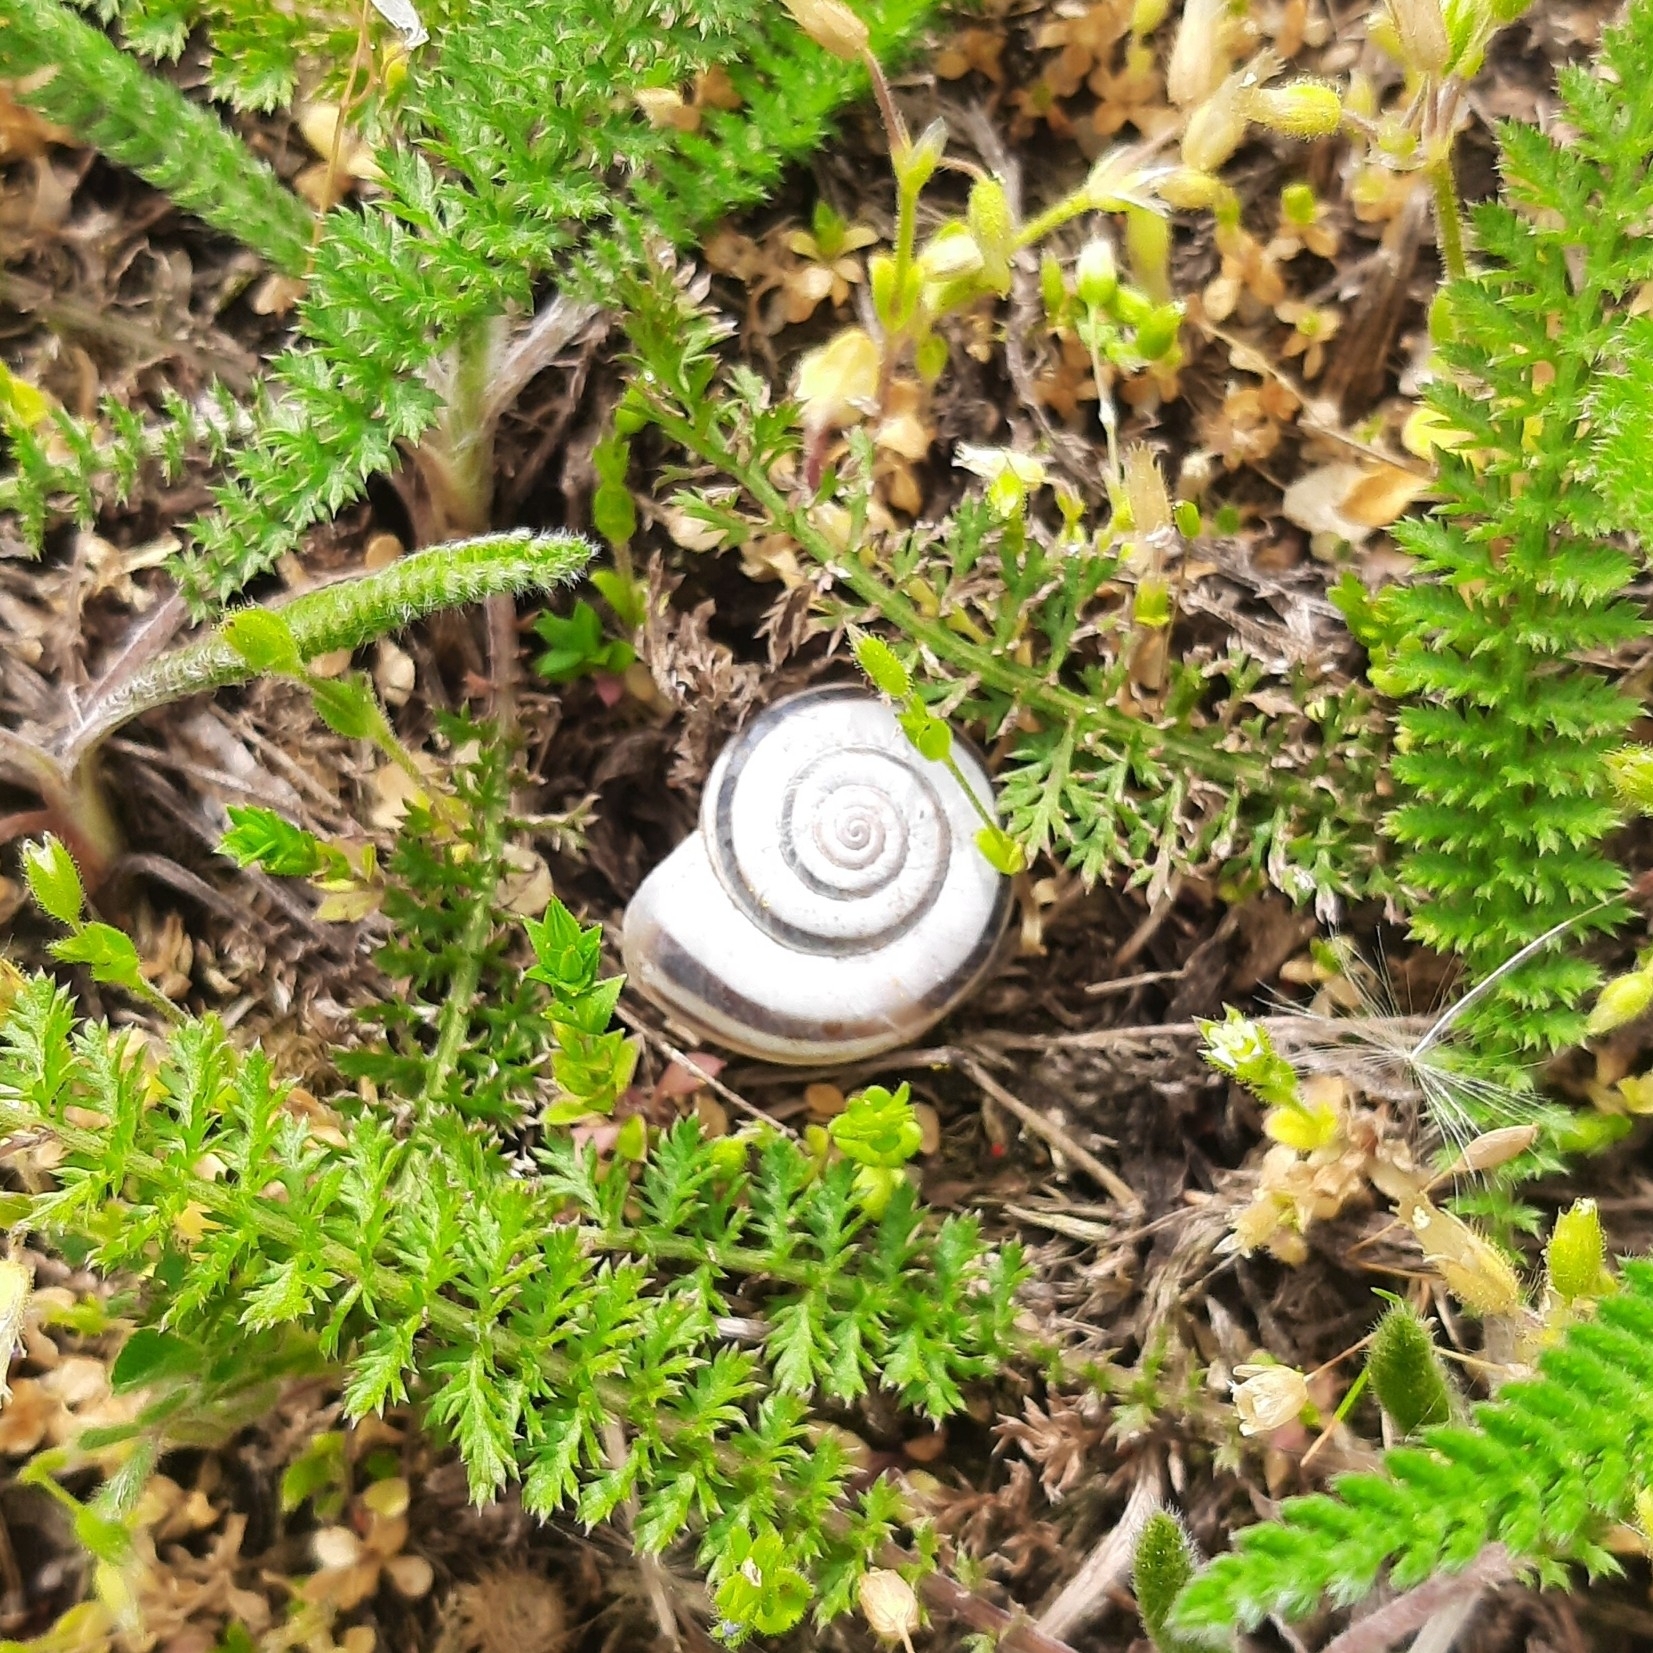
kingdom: Animalia
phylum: Mollusca
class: Gastropoda
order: Stylommatophora
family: Geomitridae
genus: Xerolenta
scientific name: Xerolenta obvia
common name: White heath snail
